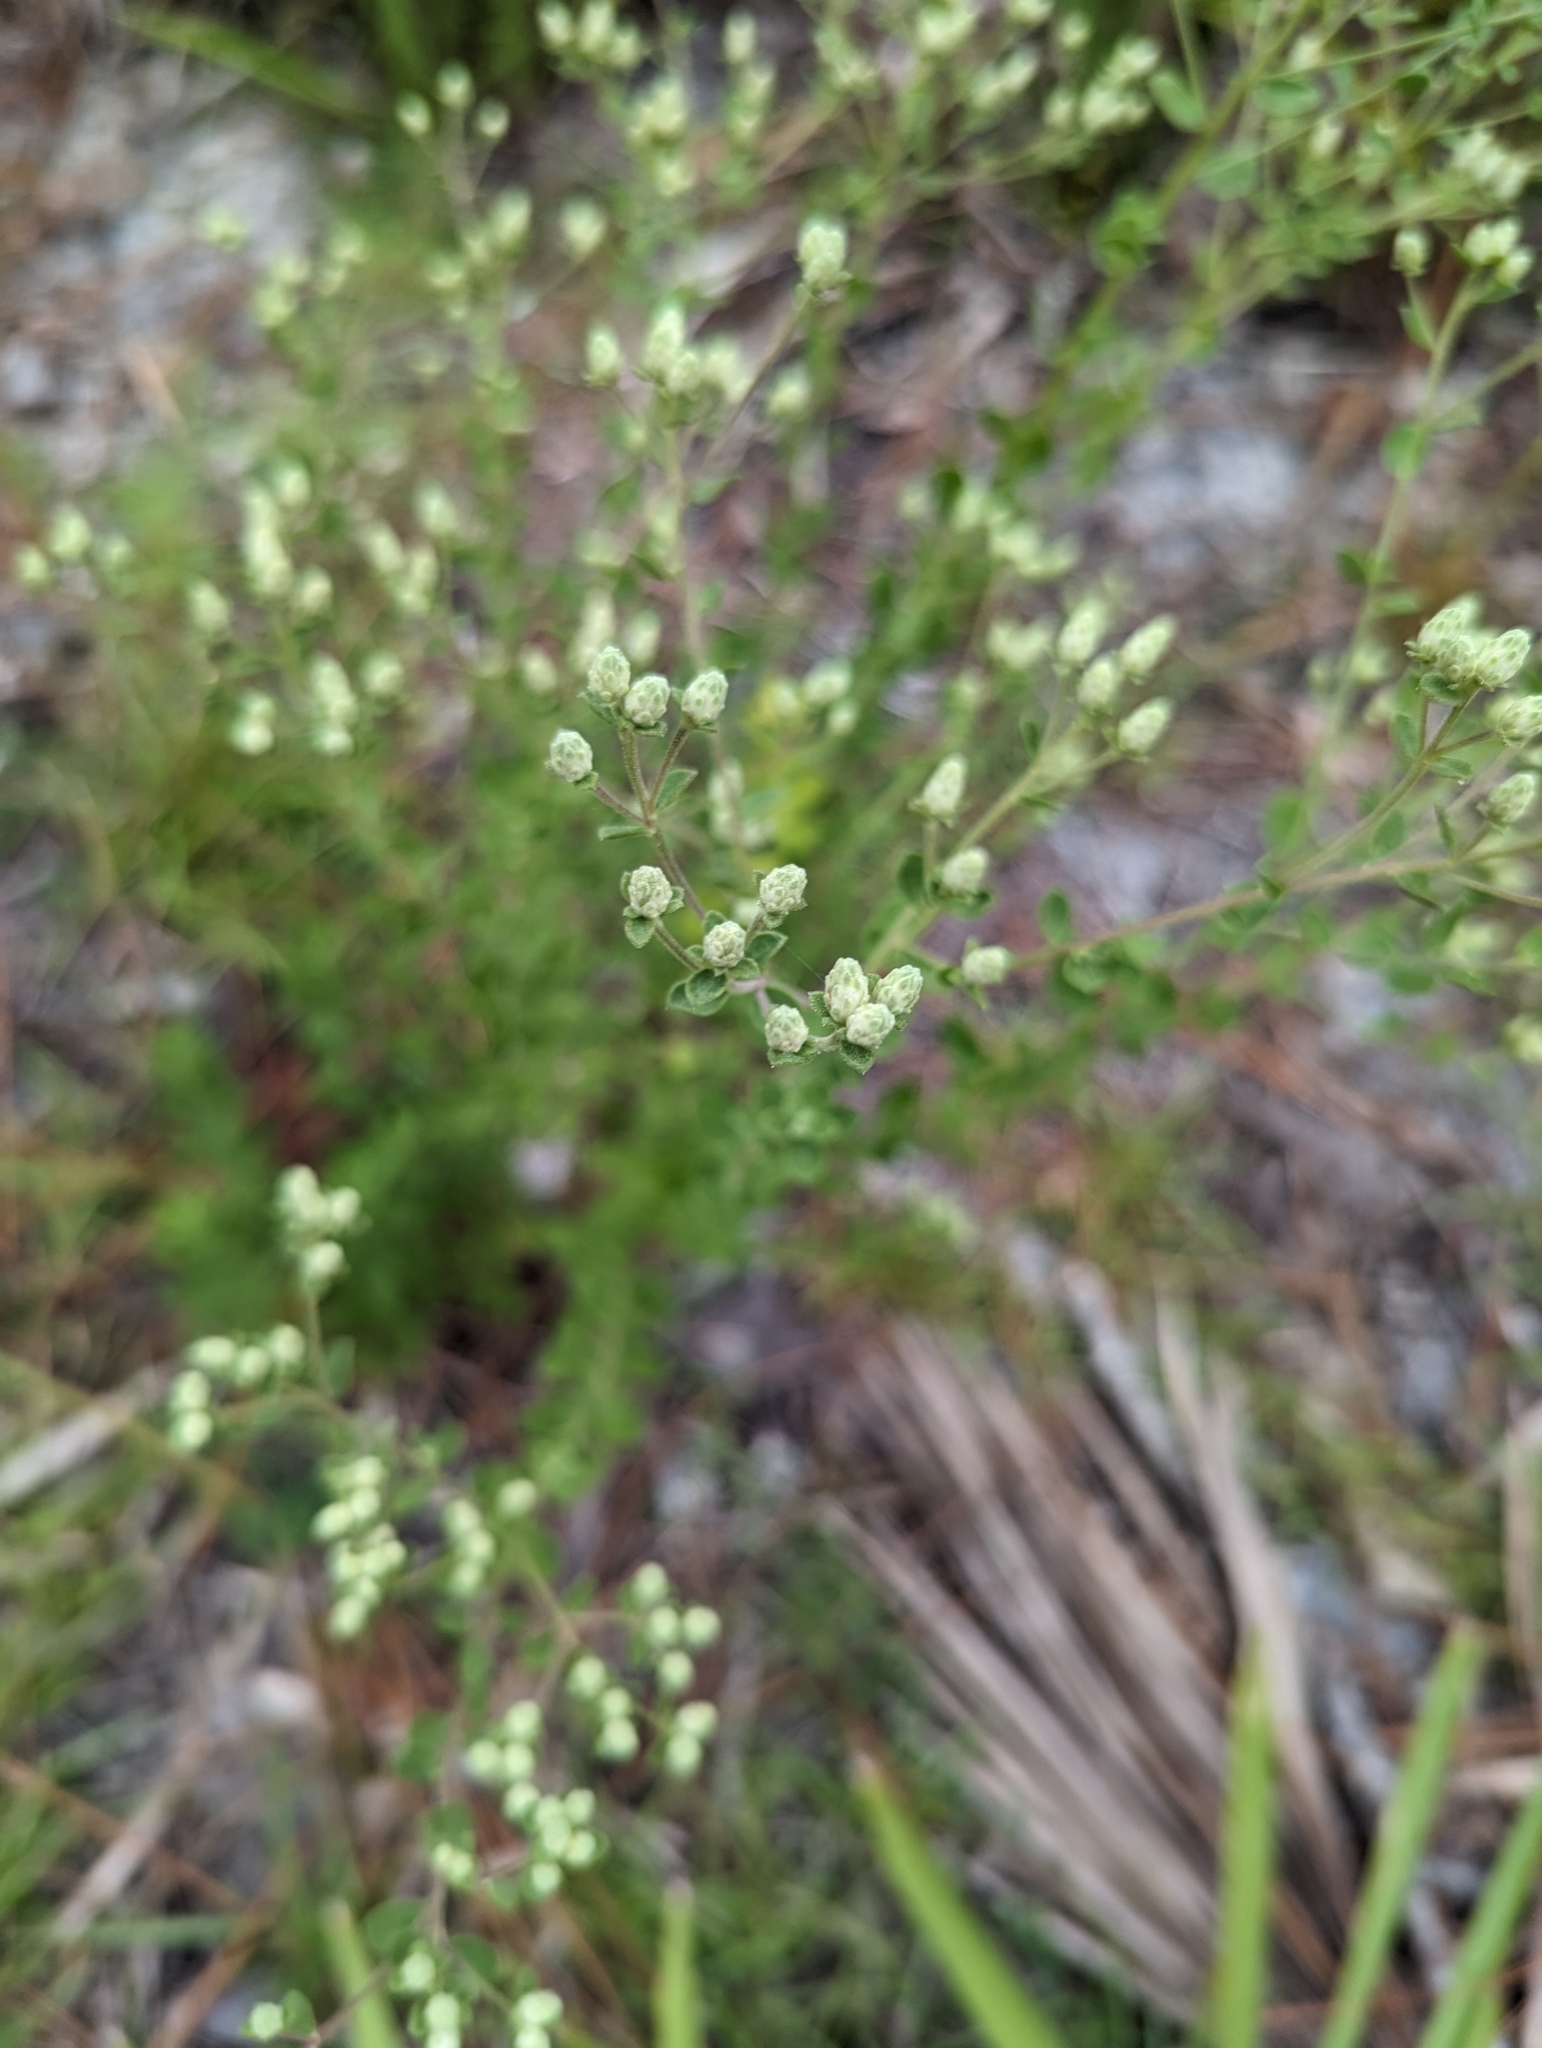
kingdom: Plantae
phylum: Tracheophyta
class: Magnoliopsida
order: Asterales
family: Asteraceae
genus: Sericocarpus
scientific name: Sericocarpus tortifolius
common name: Dixie aster
